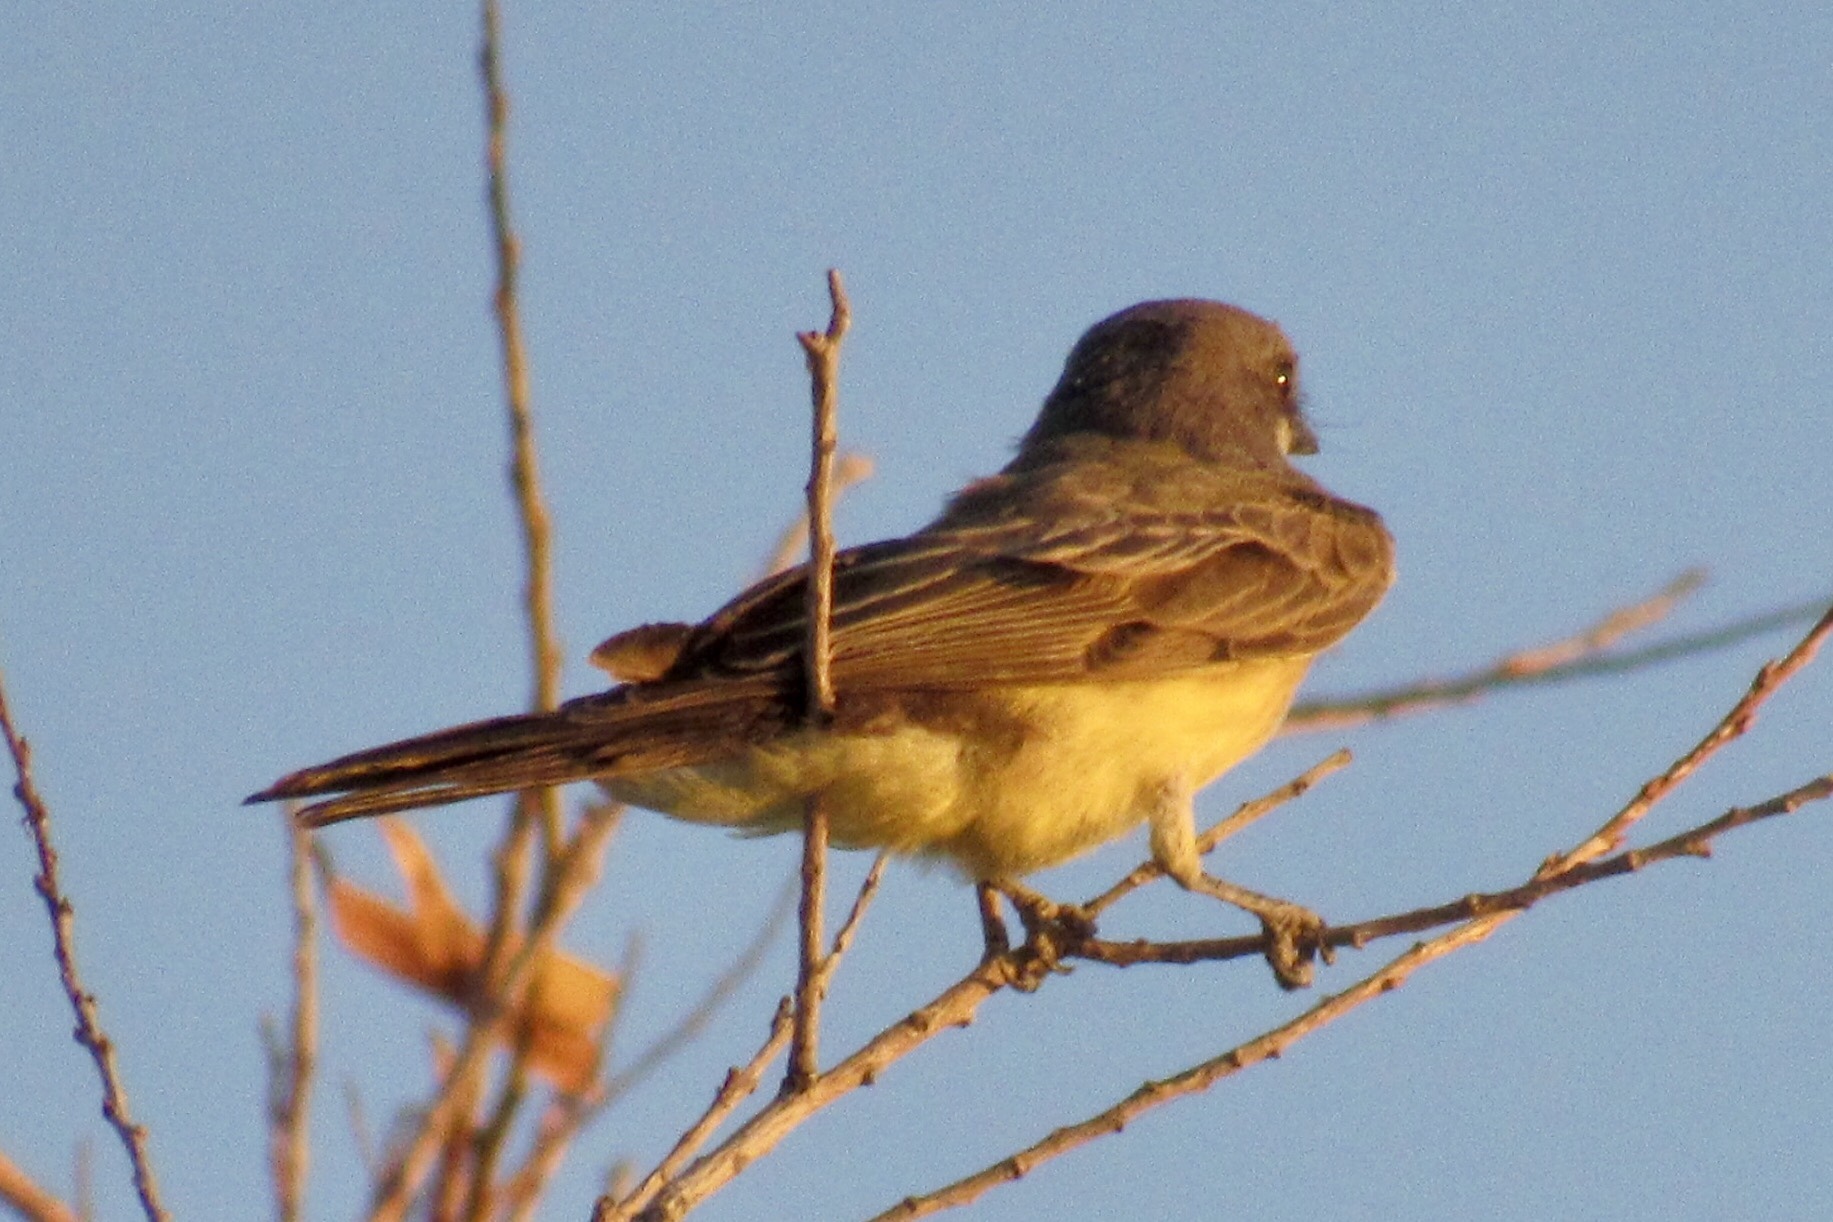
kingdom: Animalia
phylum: Chordata
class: Aves
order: Passeriformes
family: Tyrannidae
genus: Tyrannus
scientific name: Tyrannus vociferans
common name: Cassin's kingbird
